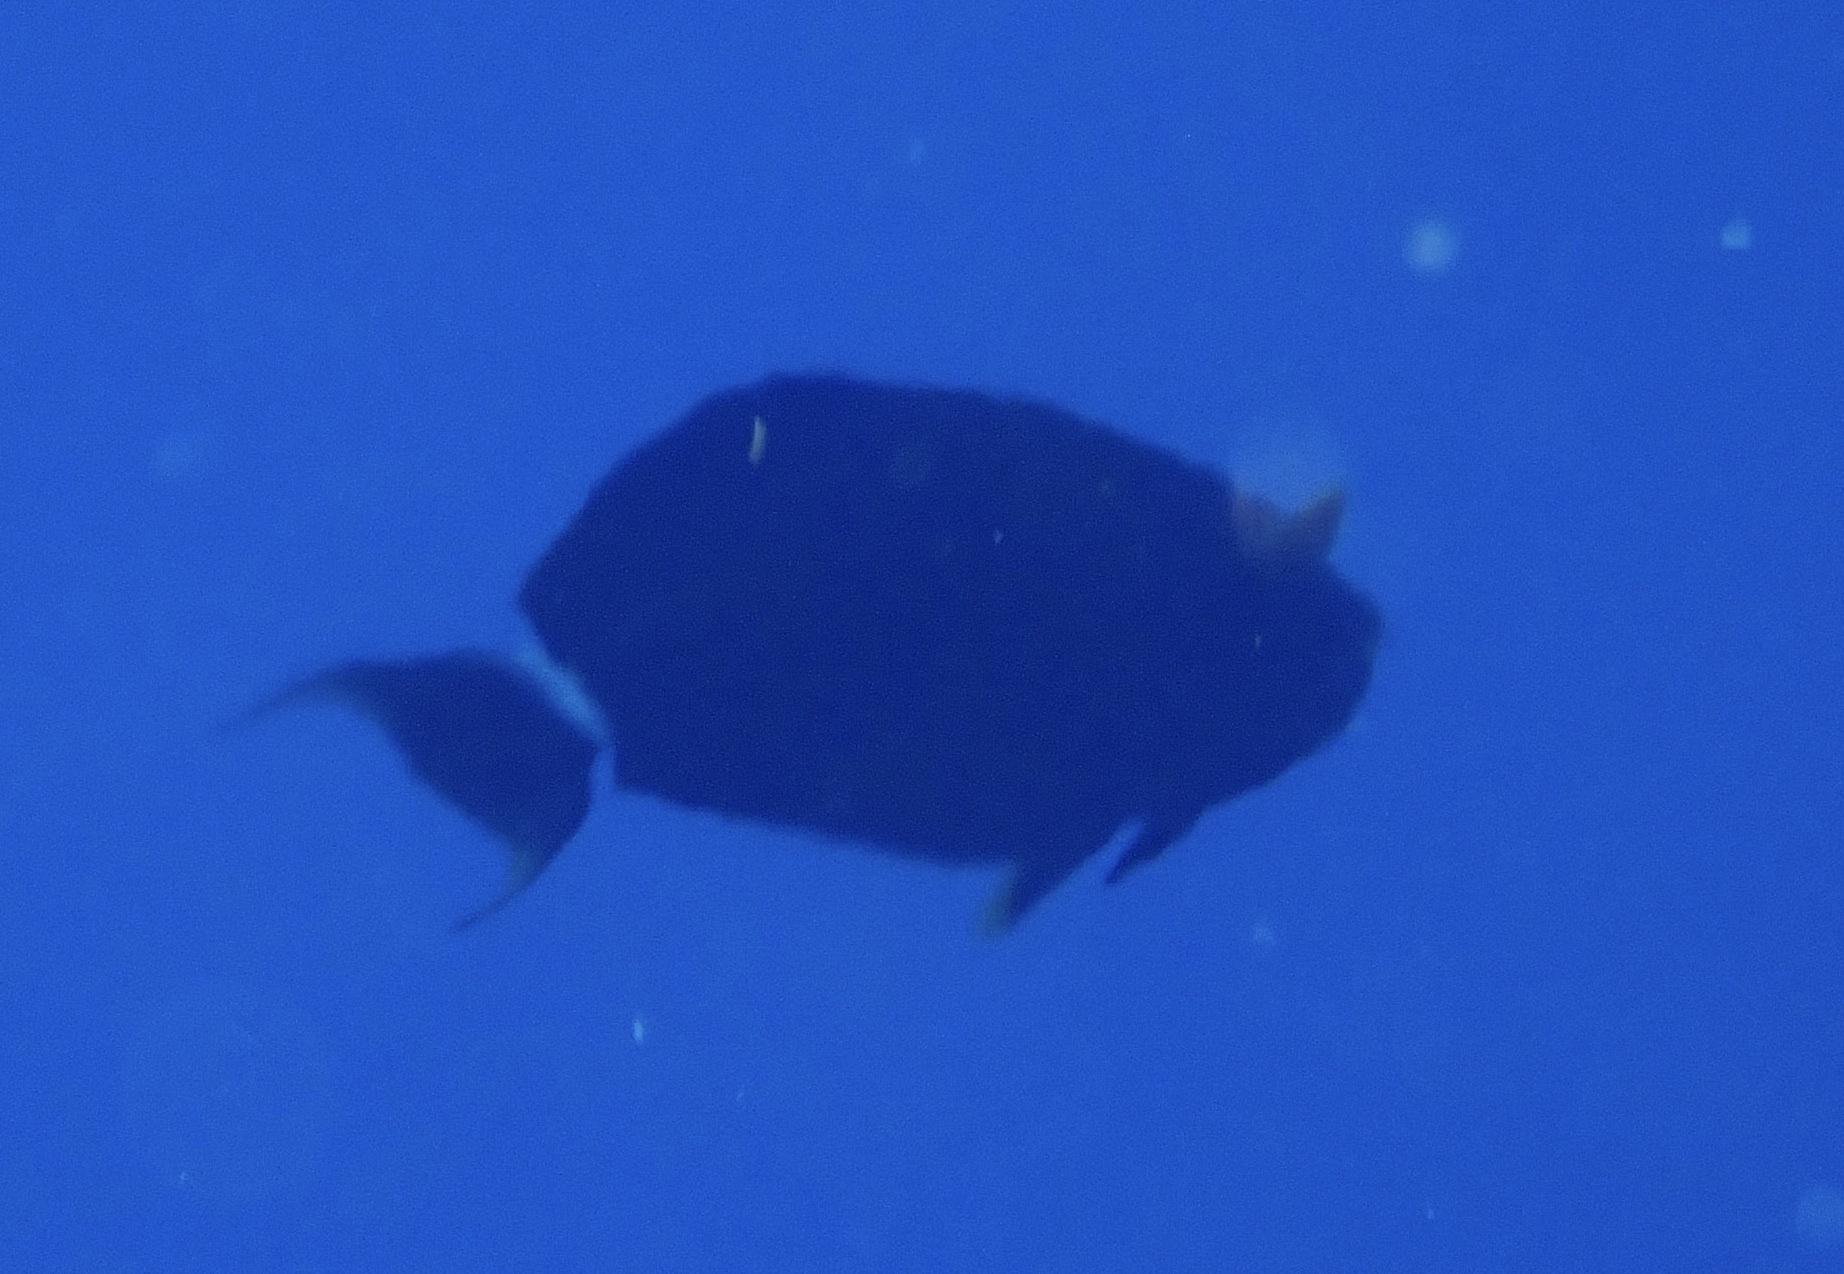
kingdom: Animalia
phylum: Chordata
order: Perciformes
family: Acanthuridae
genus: Acanthurus
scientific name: Acanthurus gahhm
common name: Black surgeonfish
